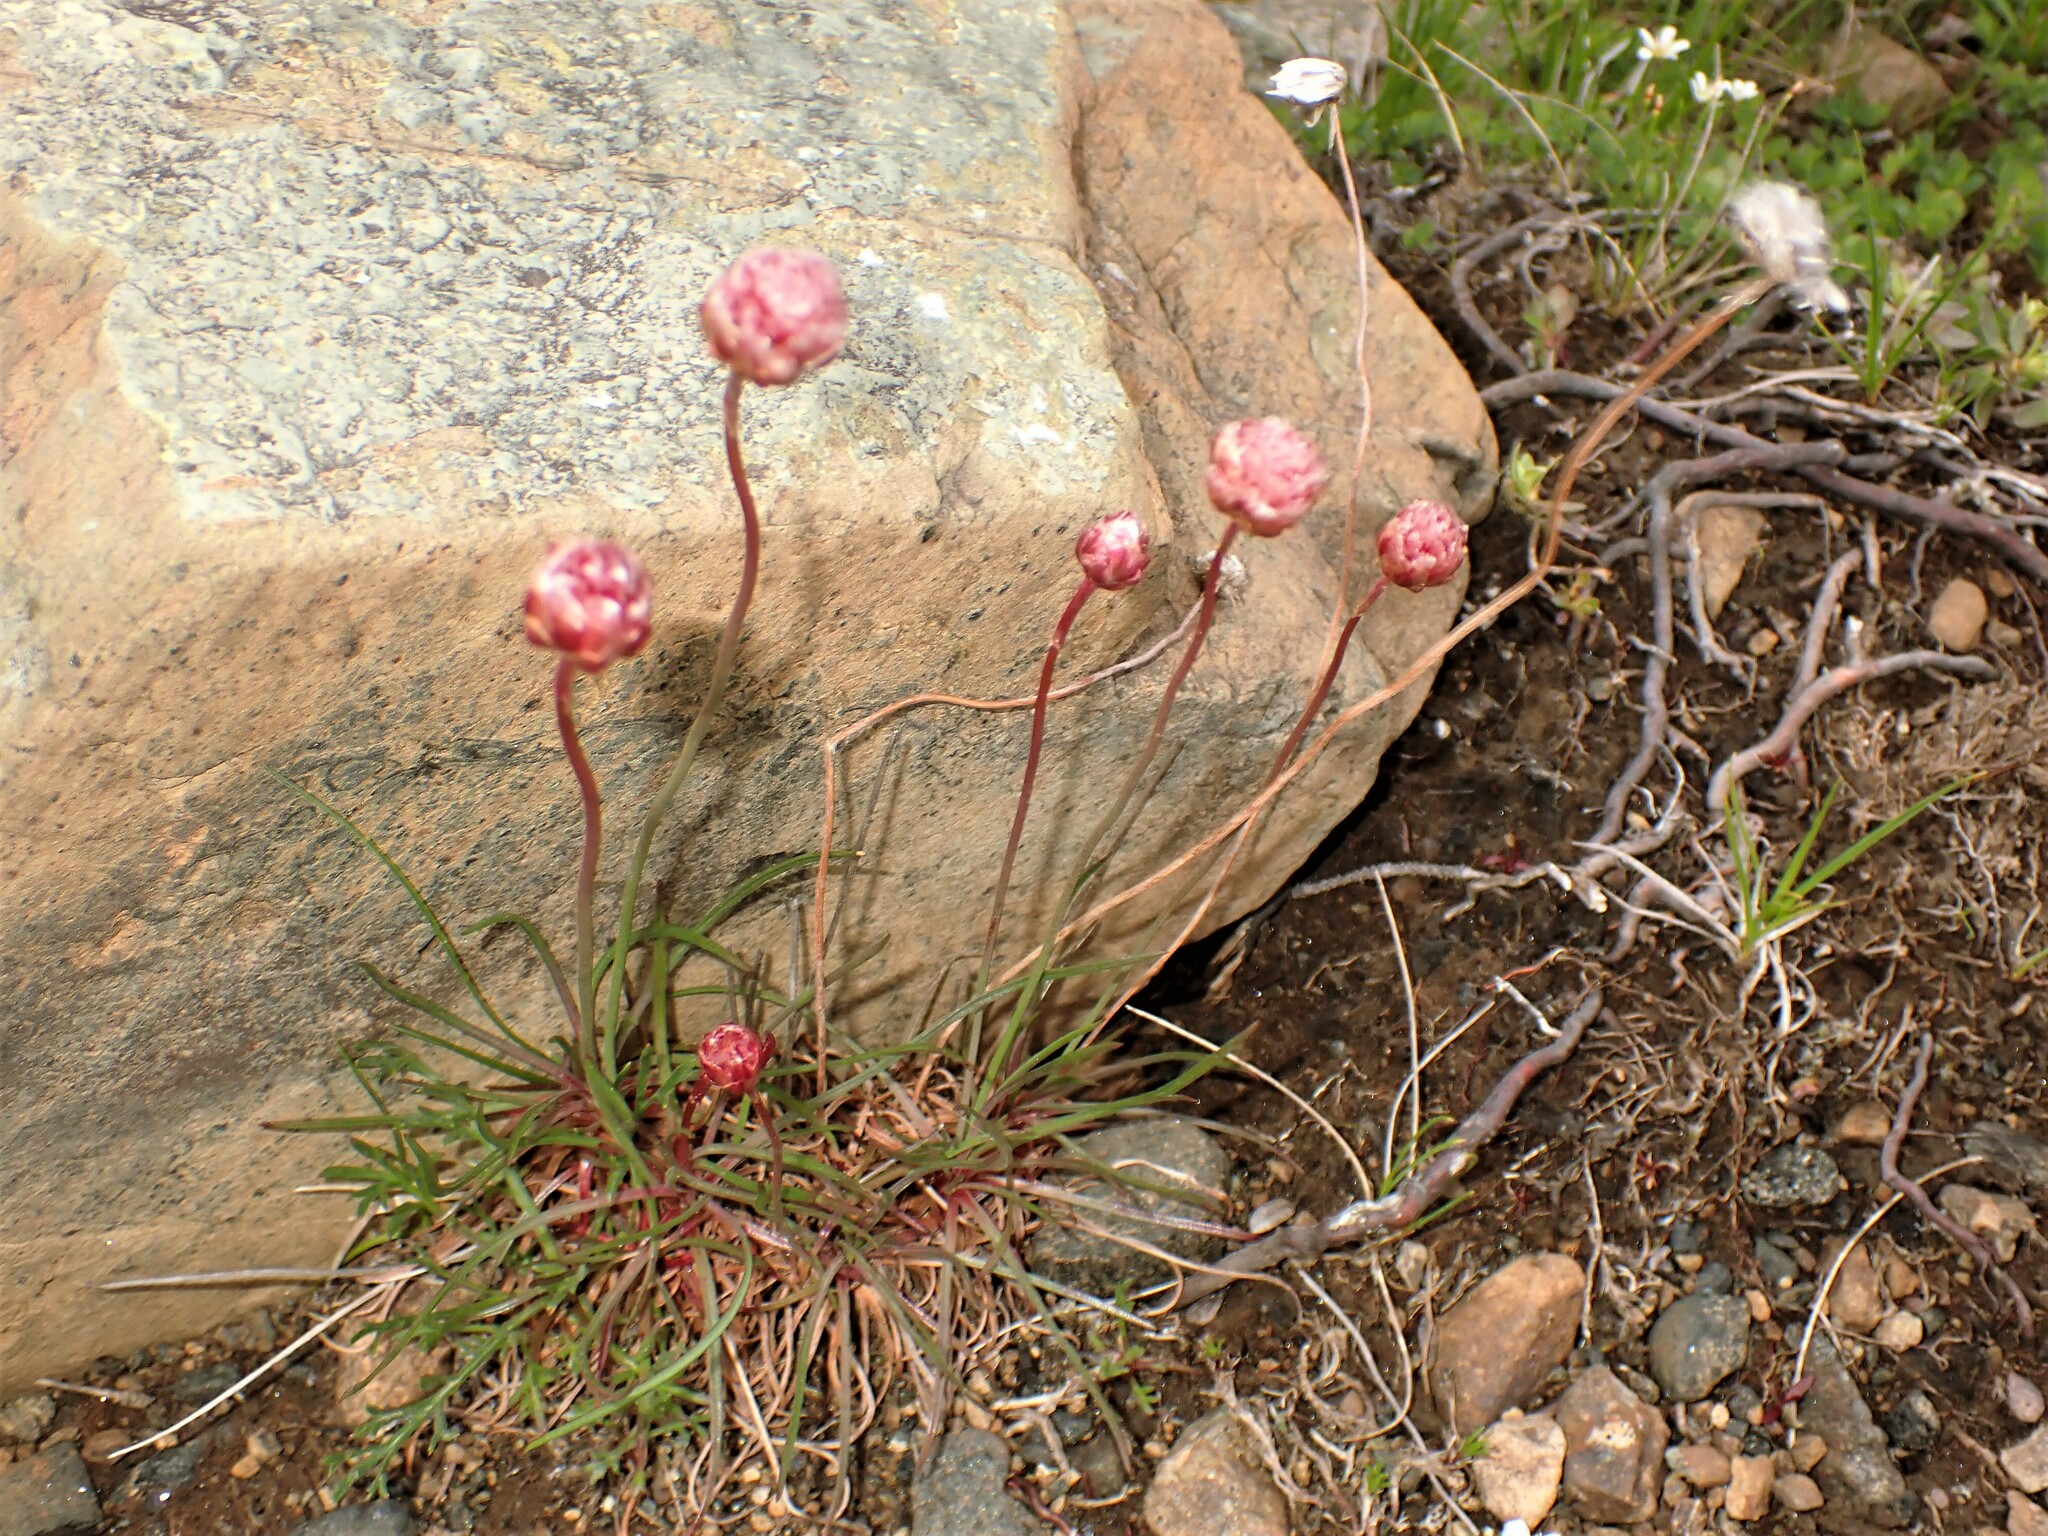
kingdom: Plantae
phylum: Tracheophyta
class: Magnoliopsida
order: Caryophyllales
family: Plumbaginaceae
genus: Armeria
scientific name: Armeria maritima
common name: Thrift
